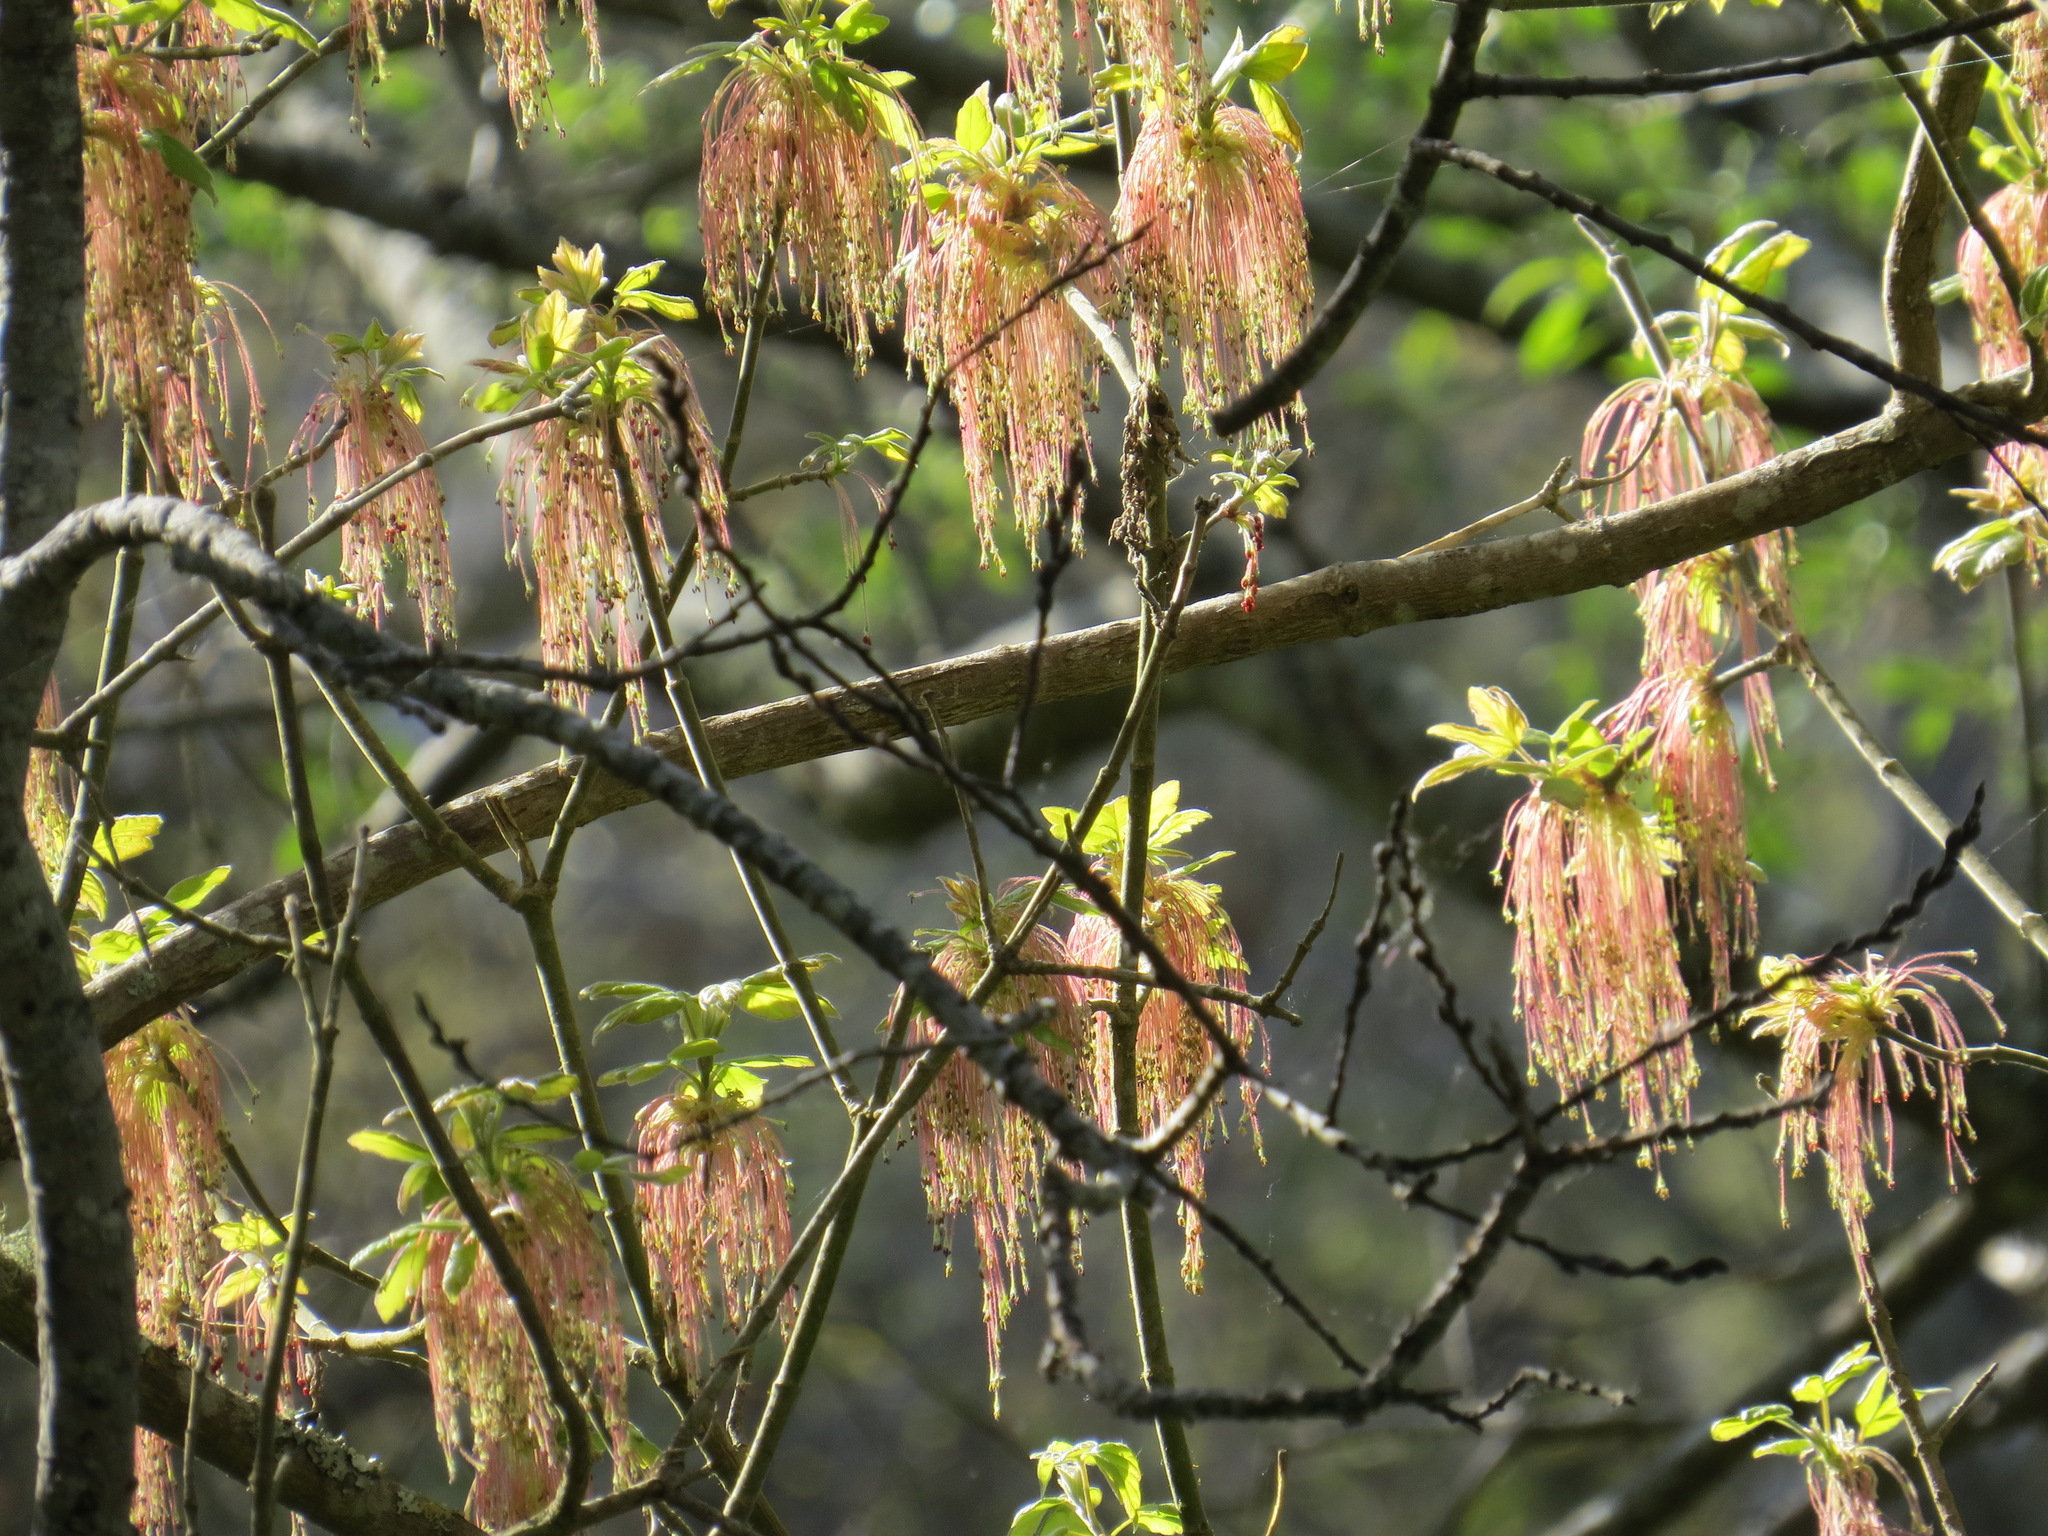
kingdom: Plantae
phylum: Tracheophyta
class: Magnoliopsida
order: Sapindales
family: Sapindaceae
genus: Acer
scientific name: Acer negundo
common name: Ashleaf maple
